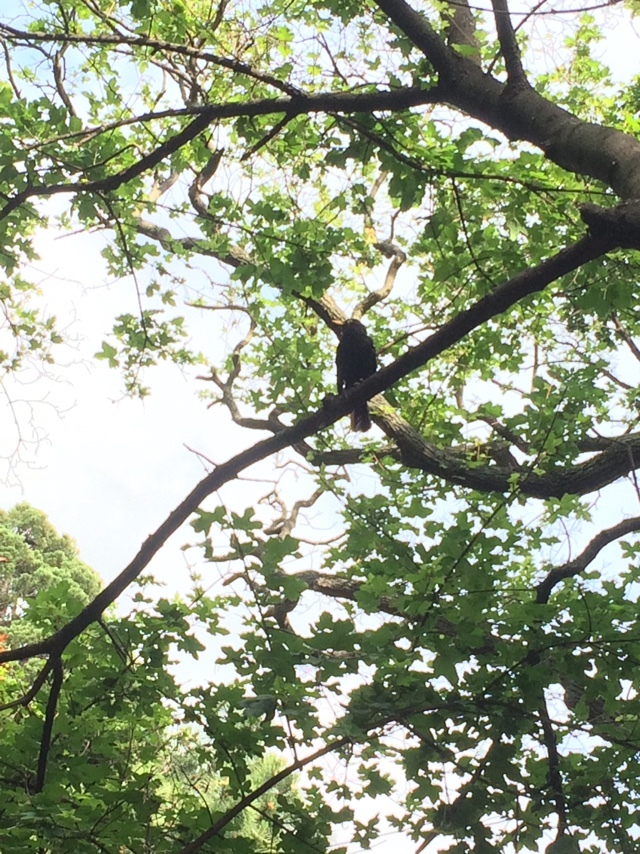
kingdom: Animalia
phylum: Chordata
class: Aves
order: Passeriformes
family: Turdidae
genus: Turdus
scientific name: Turdus merula
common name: Common blackbird
